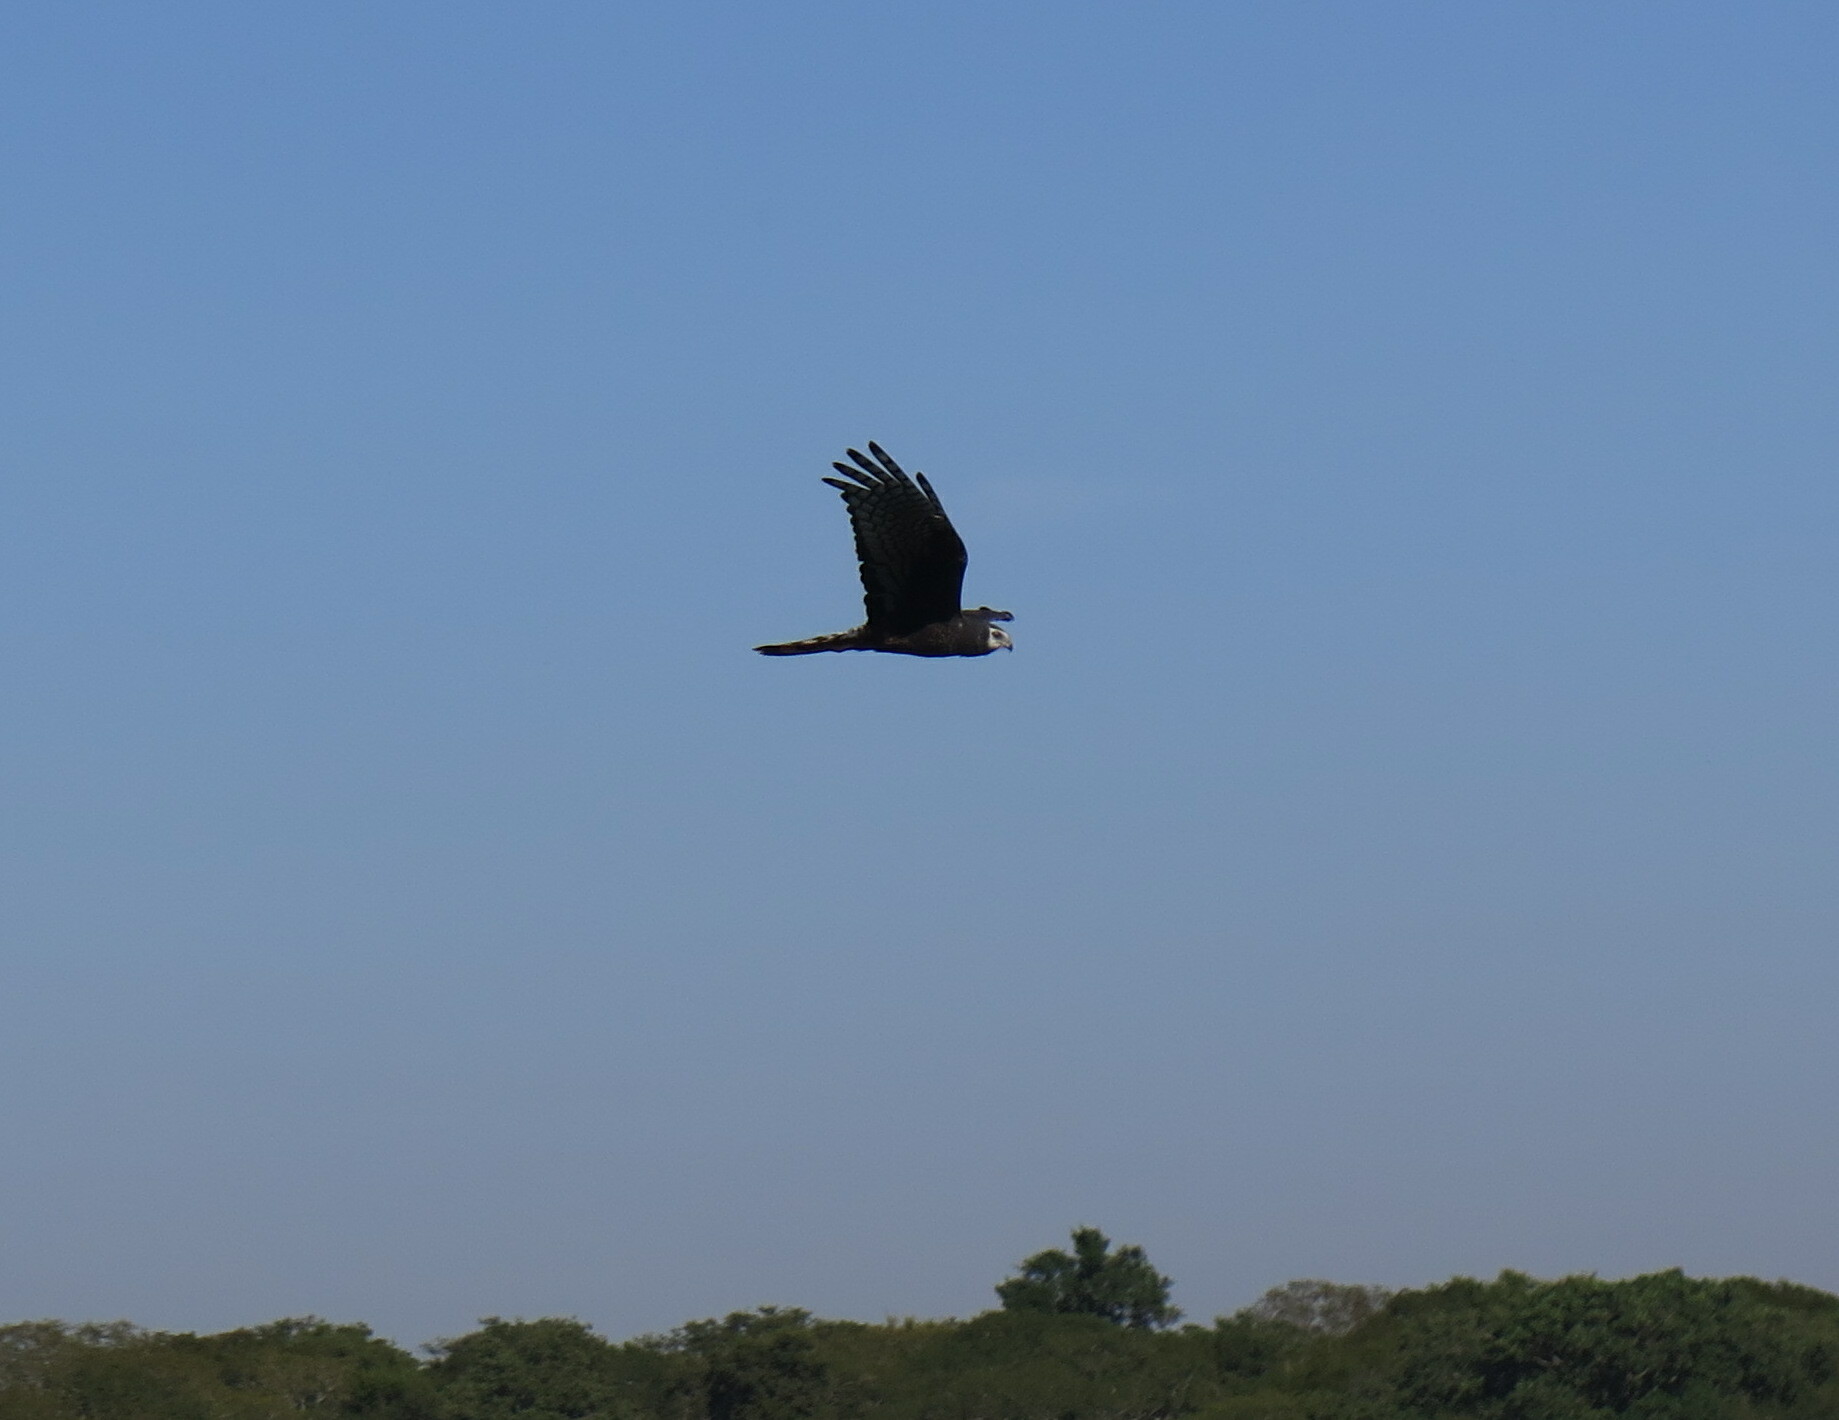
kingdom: Animalia
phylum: Chordata
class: Aves
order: Accipitriformes
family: Accipitridae
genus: Circus
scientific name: Circus buffoni
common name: Long-winged harrier
